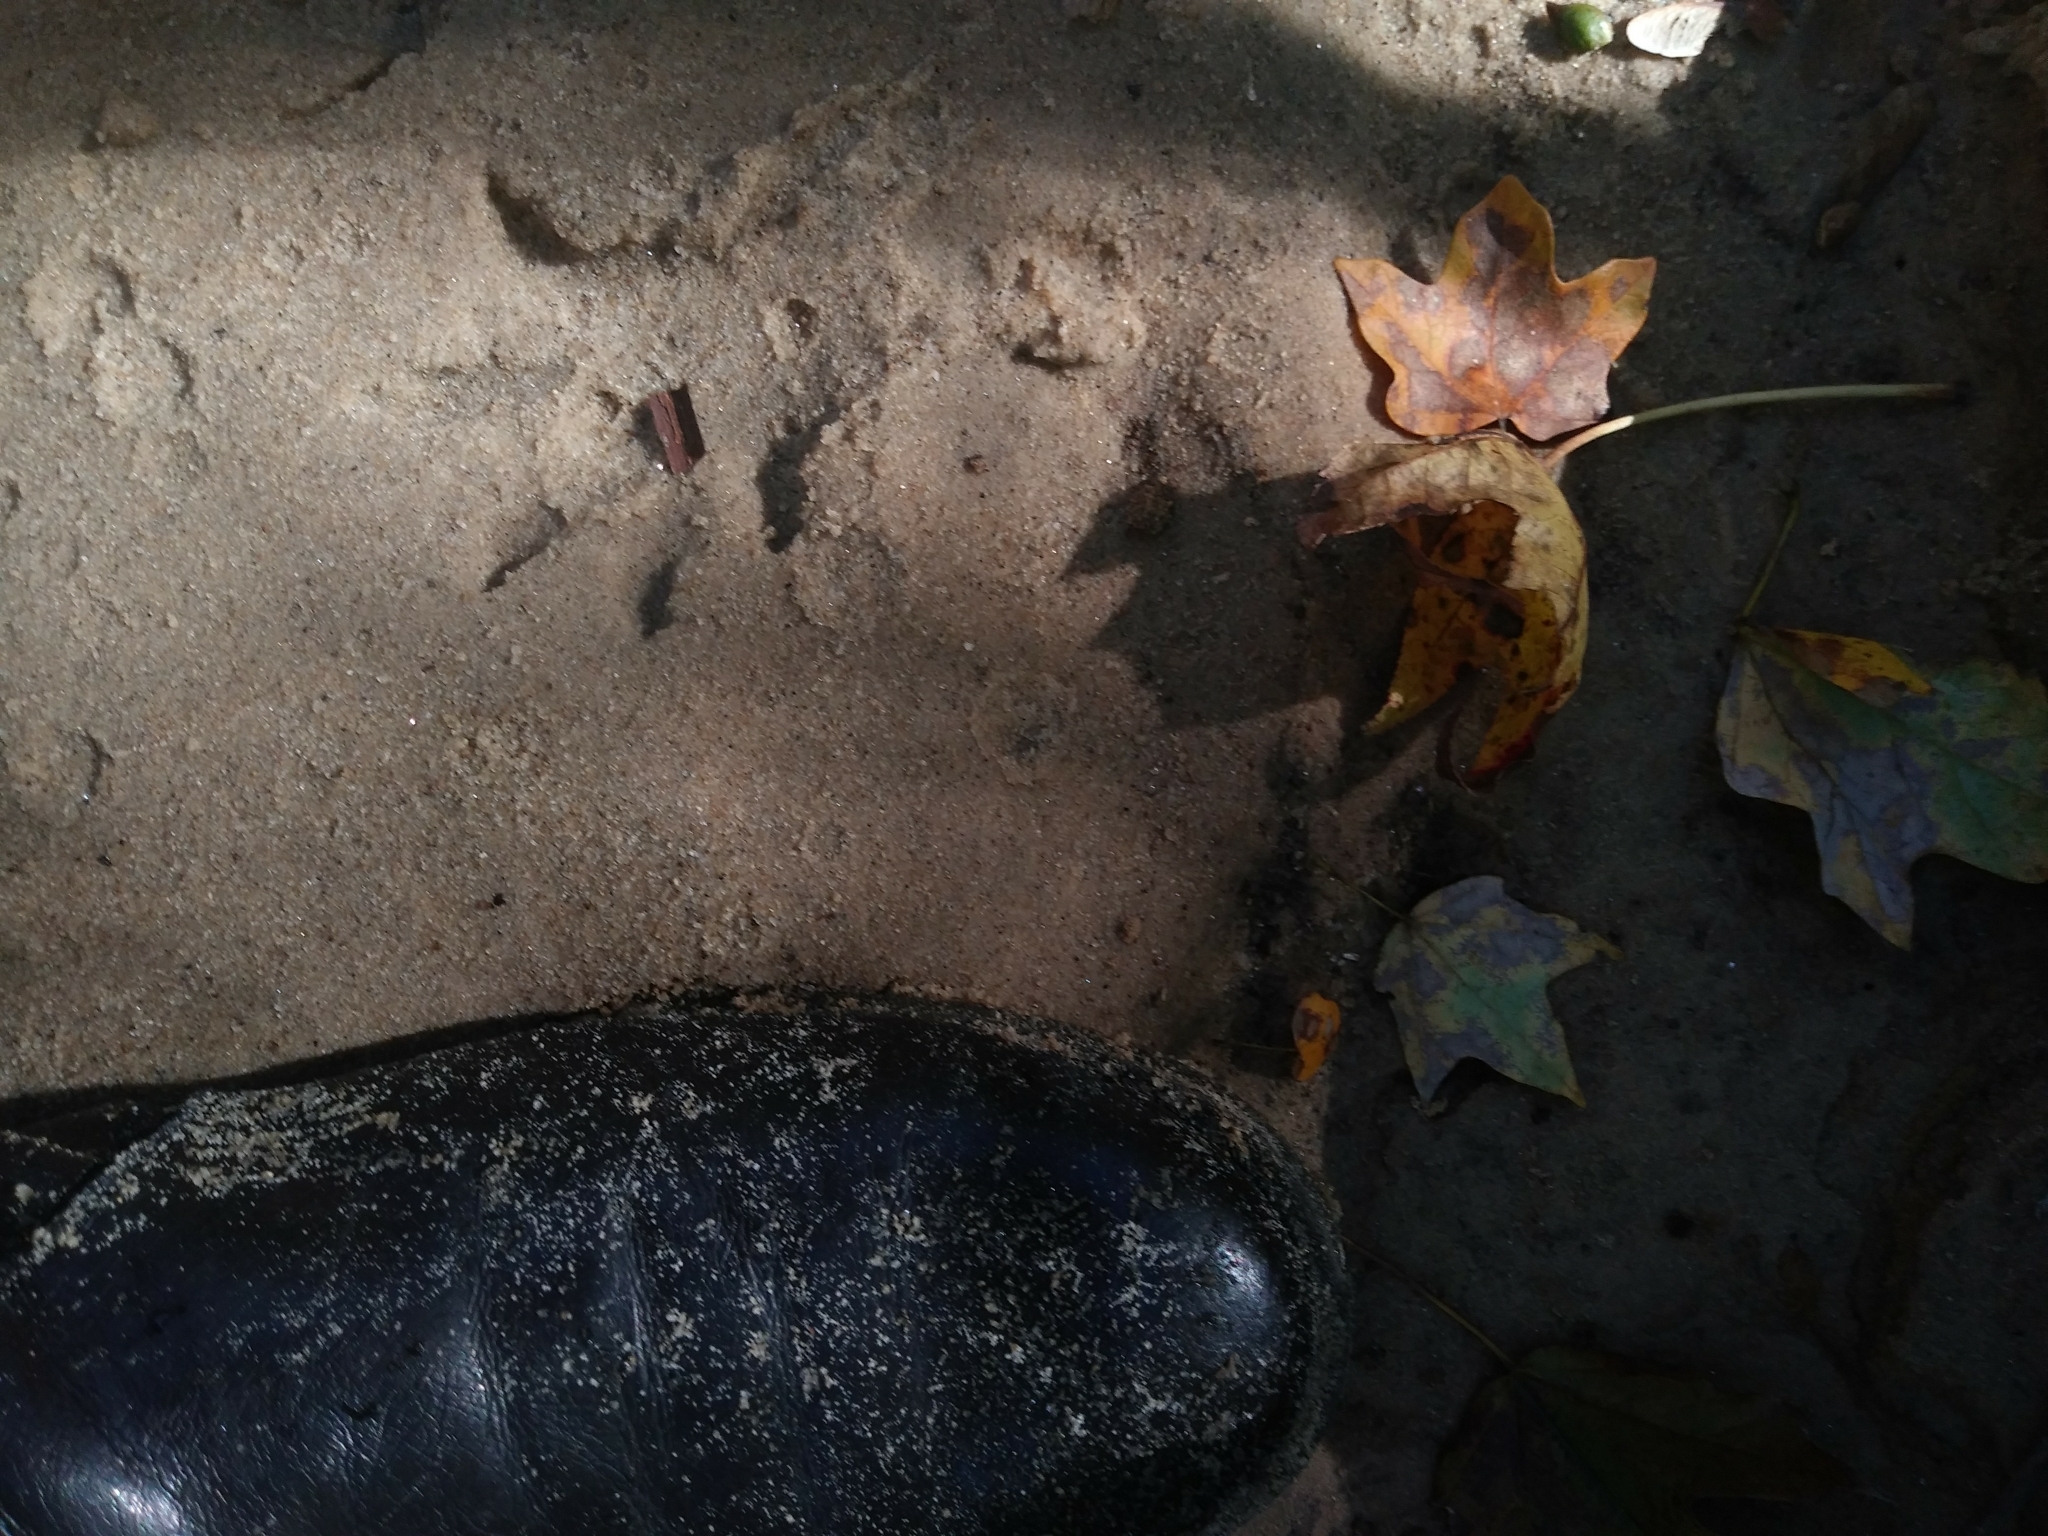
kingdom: Animalia
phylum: Chordata
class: Mammalia
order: Carnivora
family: Procyonidae
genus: Procyon
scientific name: Procyon lotor
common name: Raccoon
